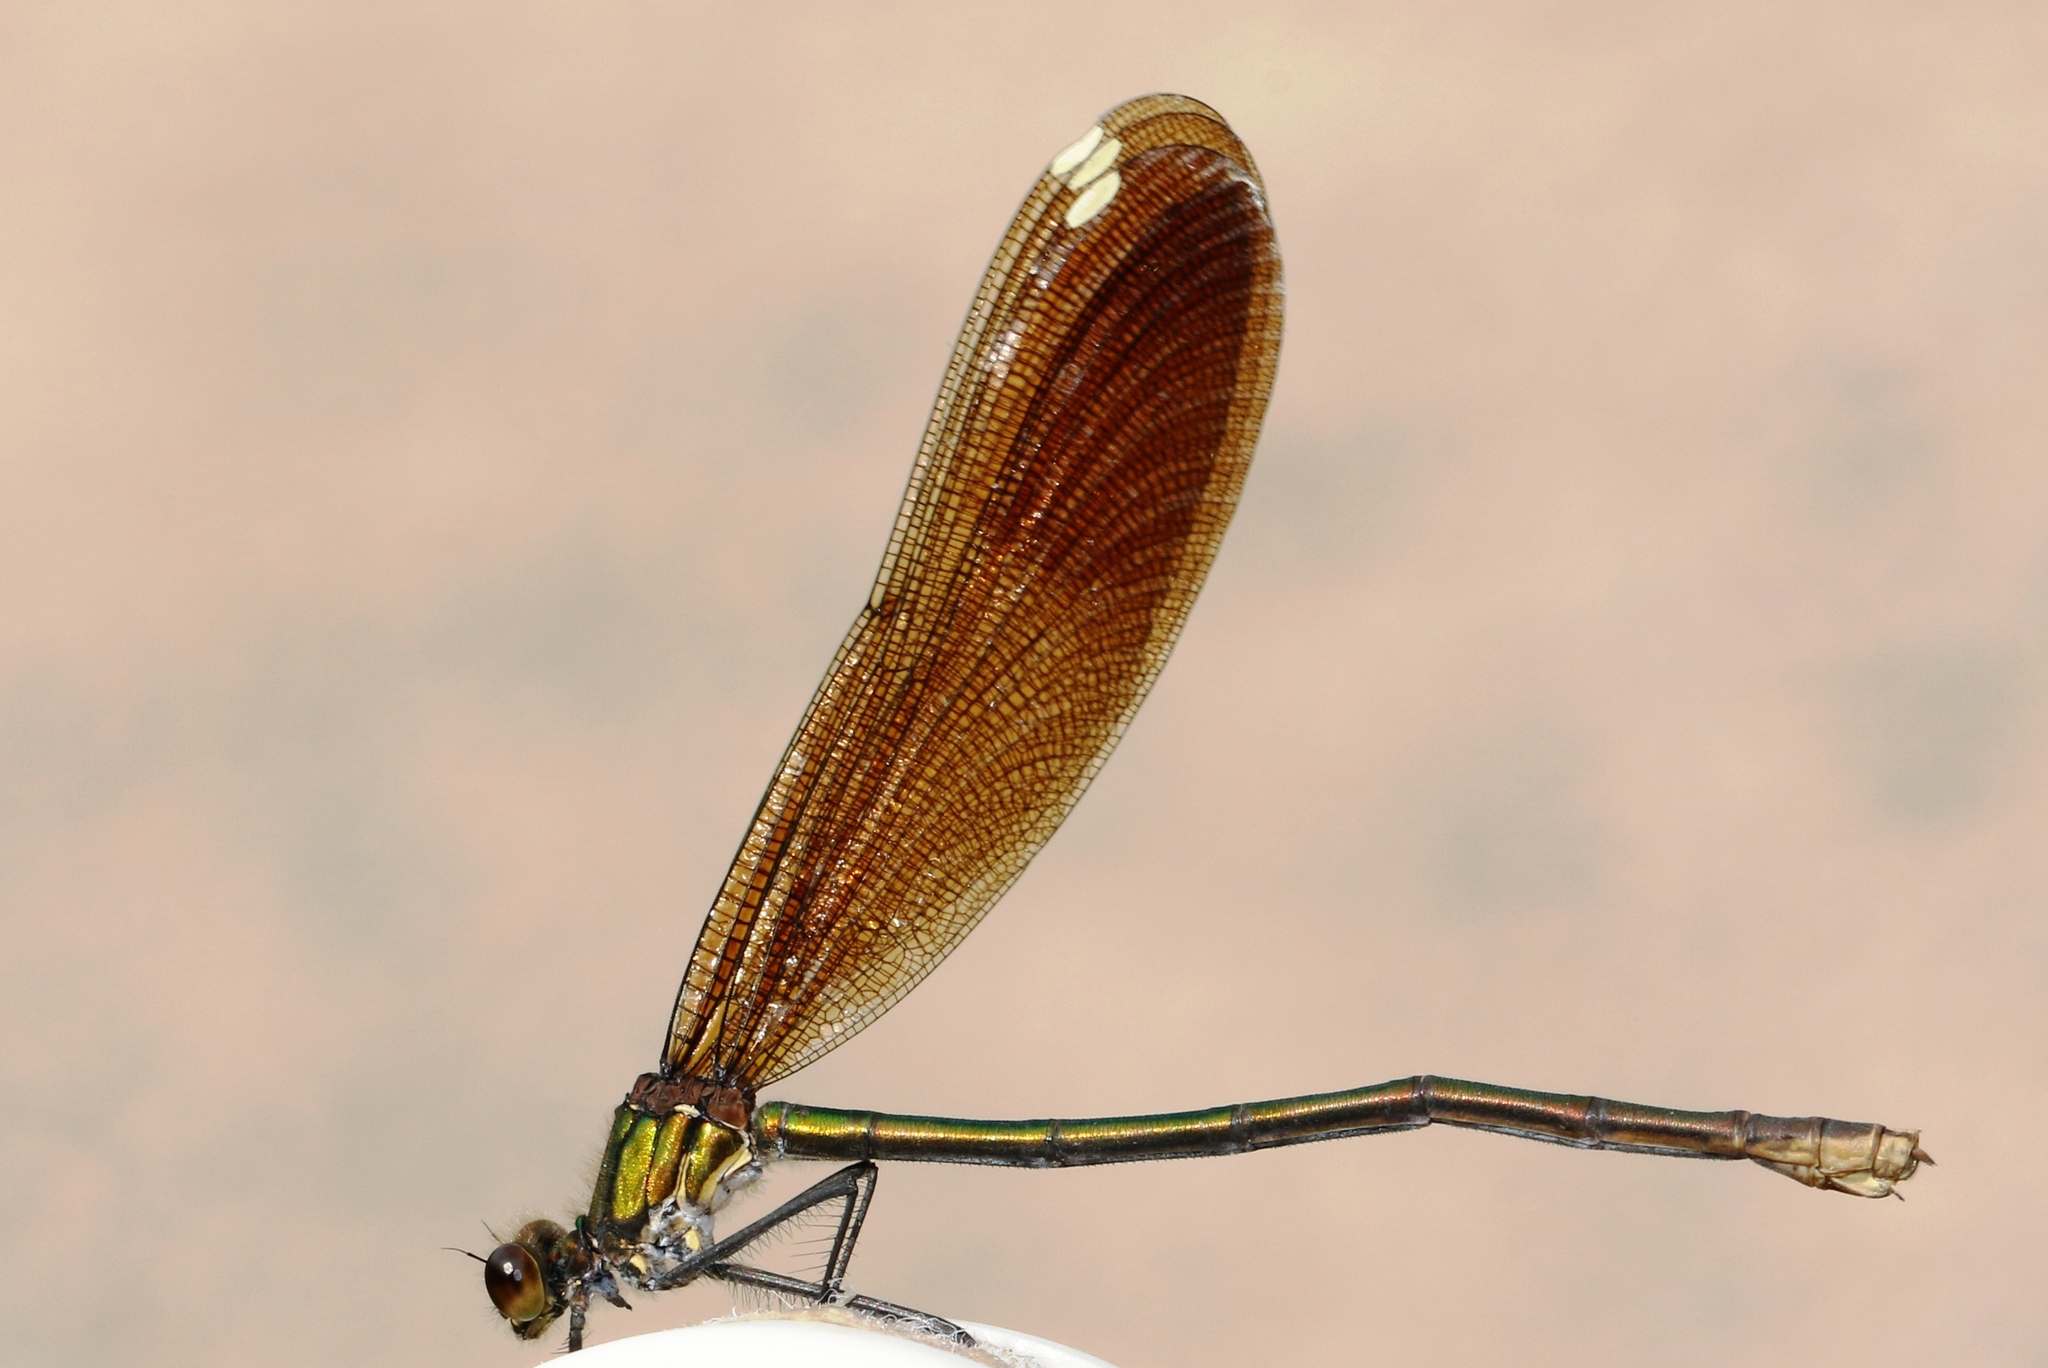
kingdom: Animalia
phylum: Arthropoda
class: Insecta
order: Odonata
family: Calopterygidae
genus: Calopteryx
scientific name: Calopteryx aequabilis
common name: River jewelwing
